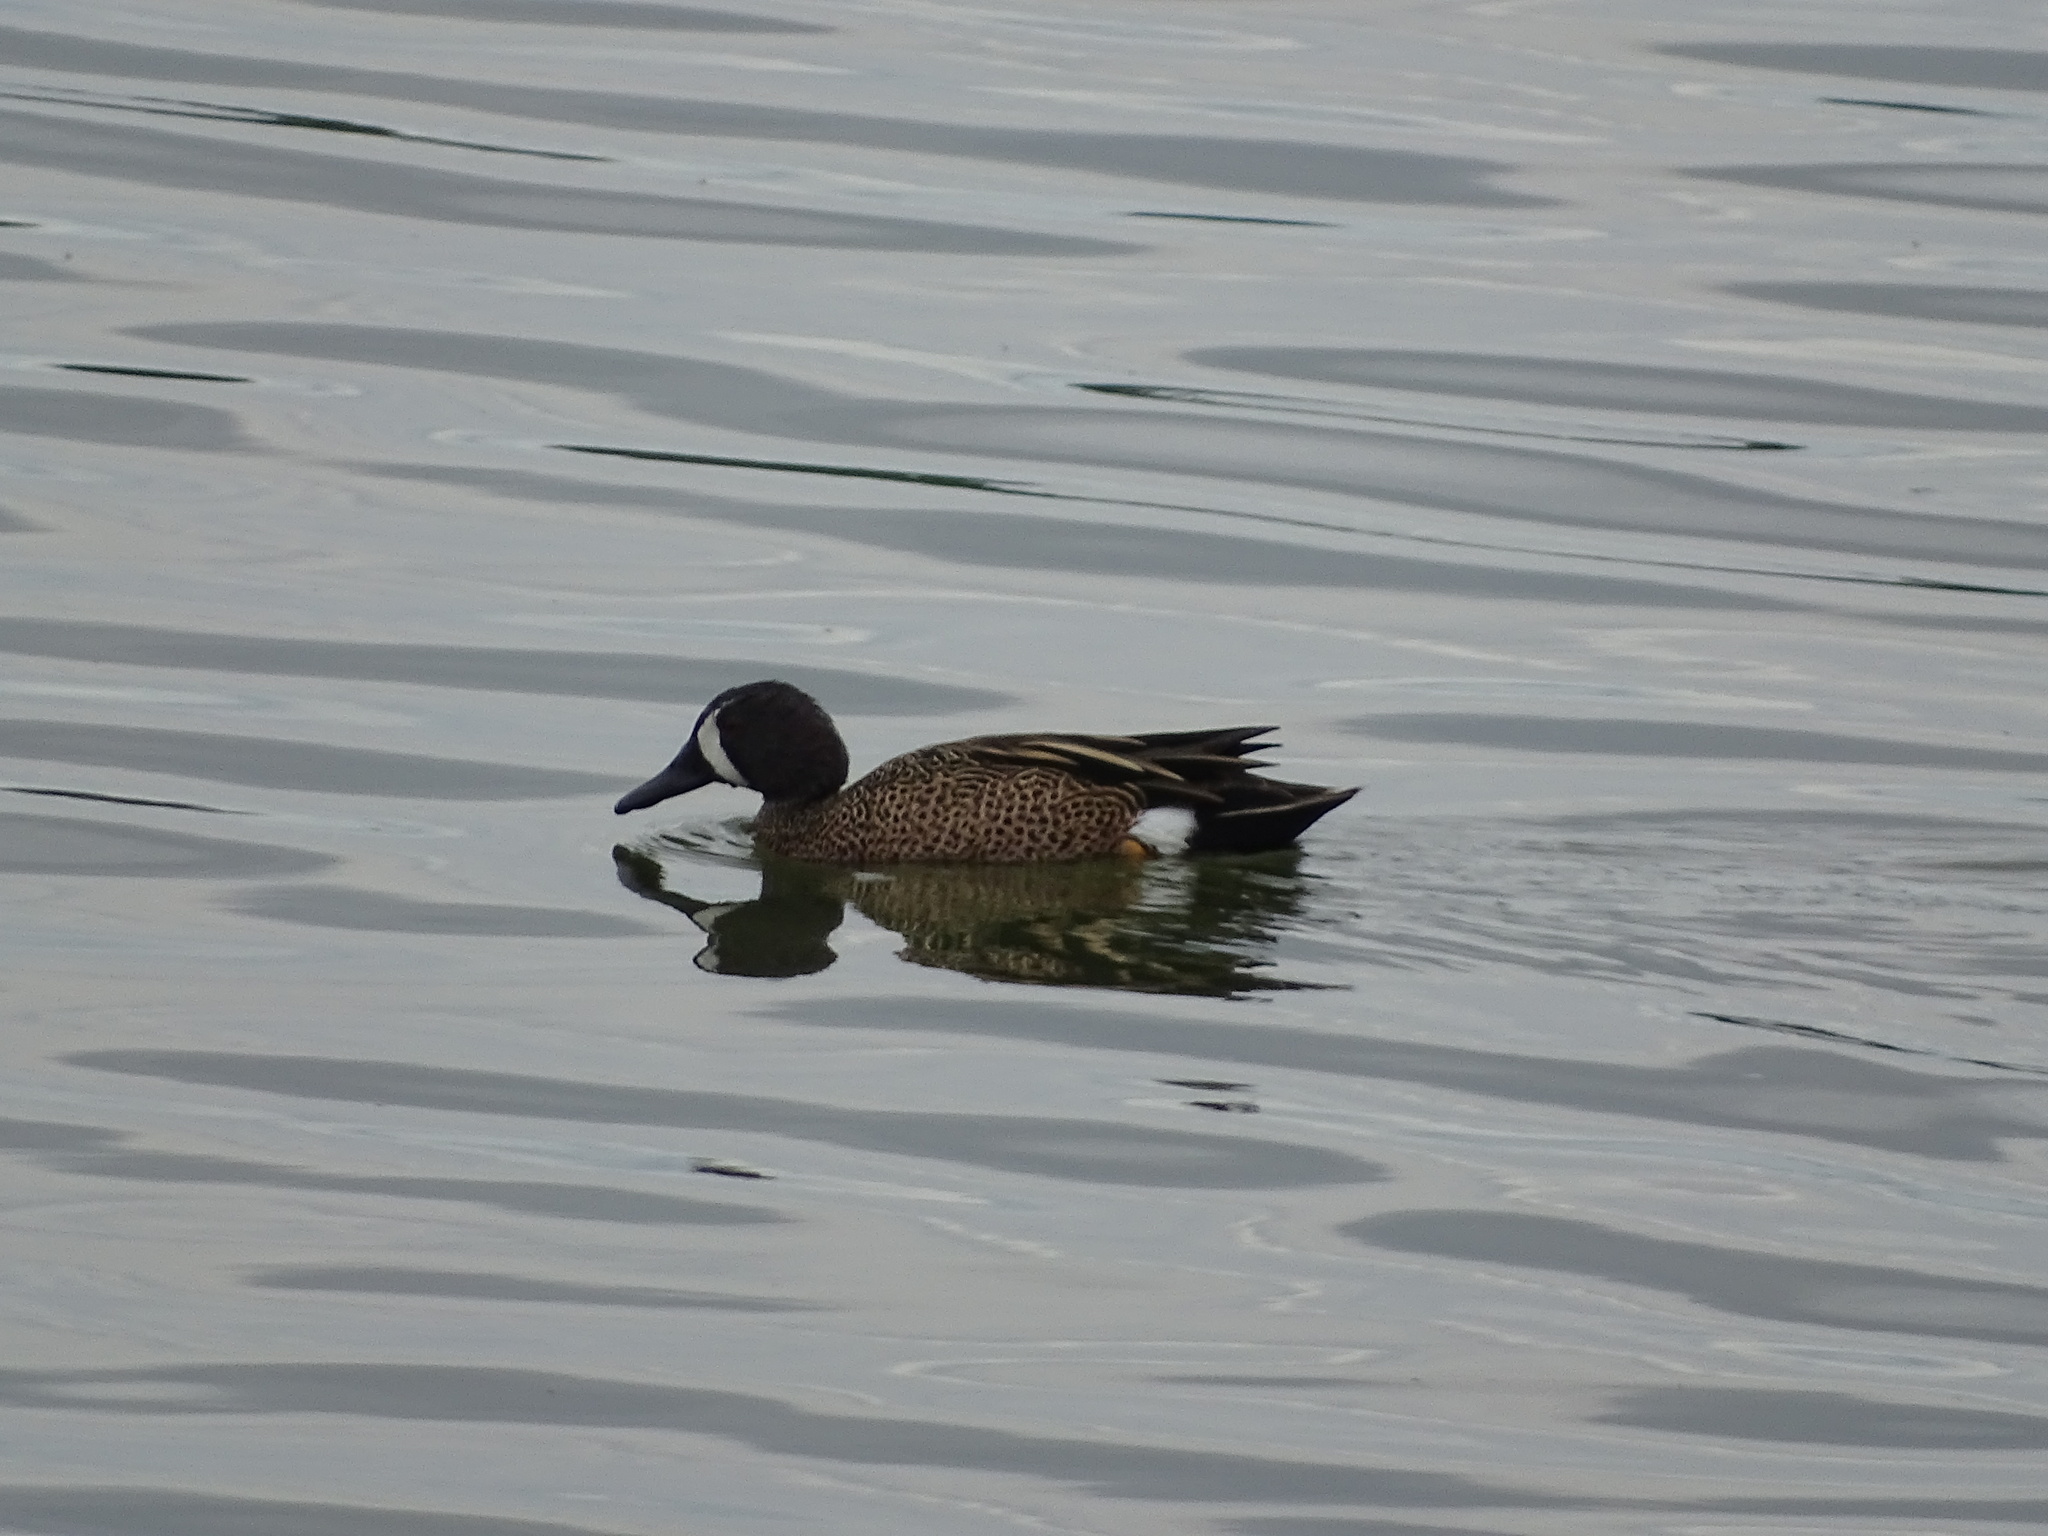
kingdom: Animalia
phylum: Chordata
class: Aves
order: Anseriformes
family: Anatidae
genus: Spatula
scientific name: Spatula discors
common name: Blue-winged teal
